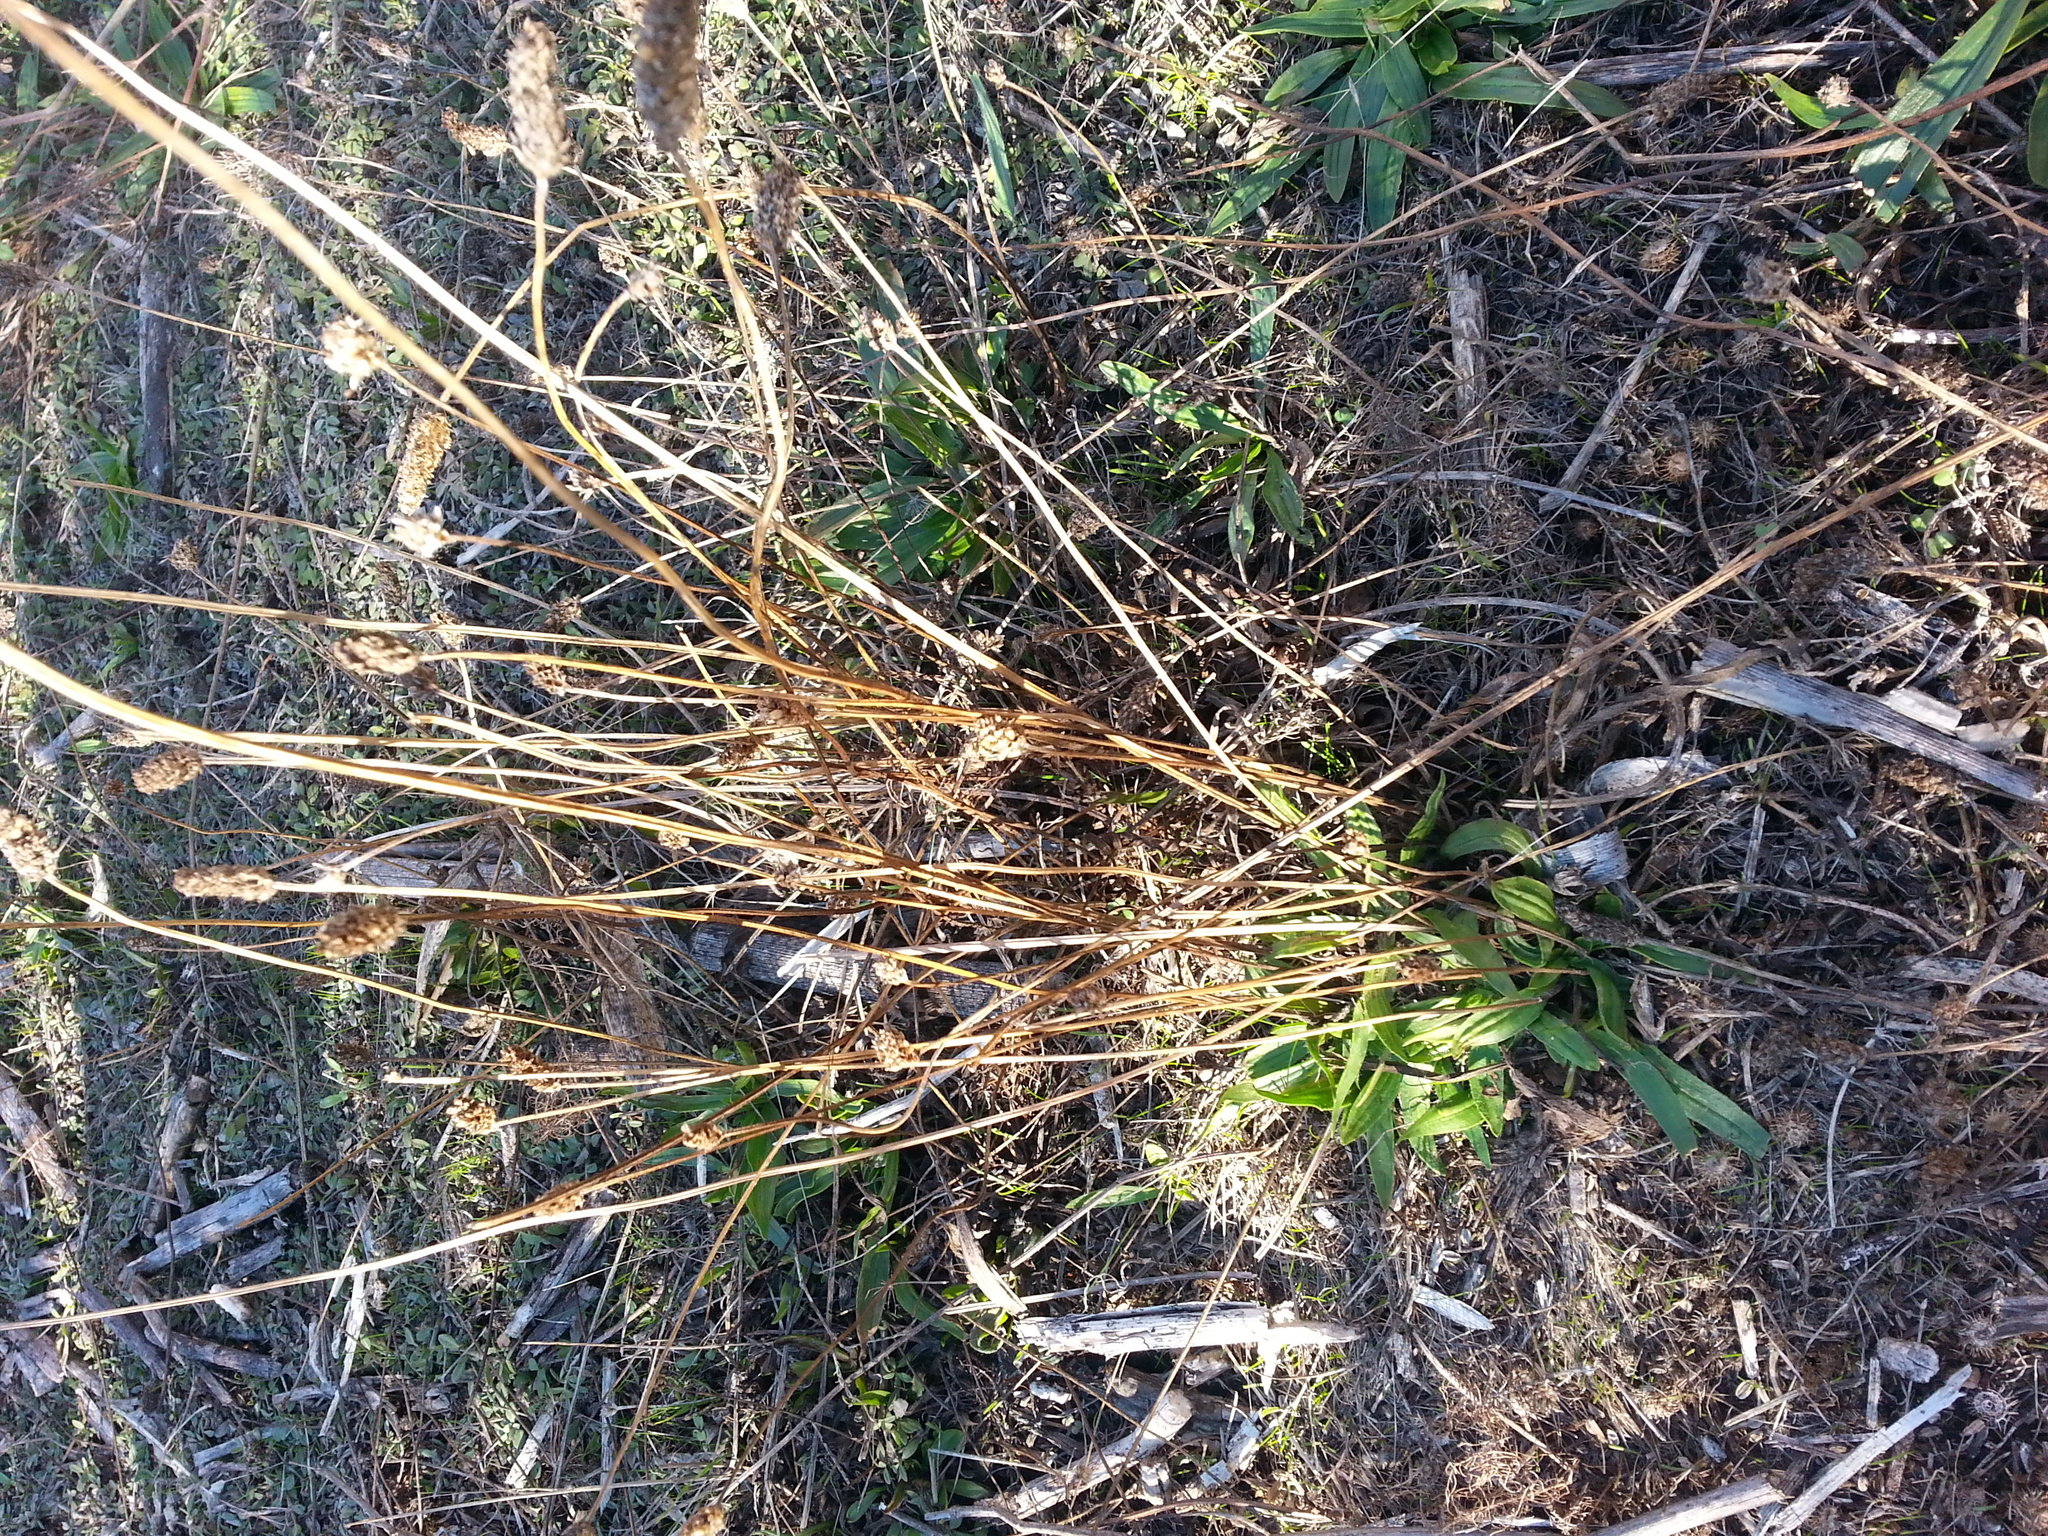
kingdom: Plantae
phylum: Tracheophyta
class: Magnoliopsida
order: Lamiales
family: Plantaginaceae
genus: Plantago
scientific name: Plantago lanceolata
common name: Ribwort plantain
